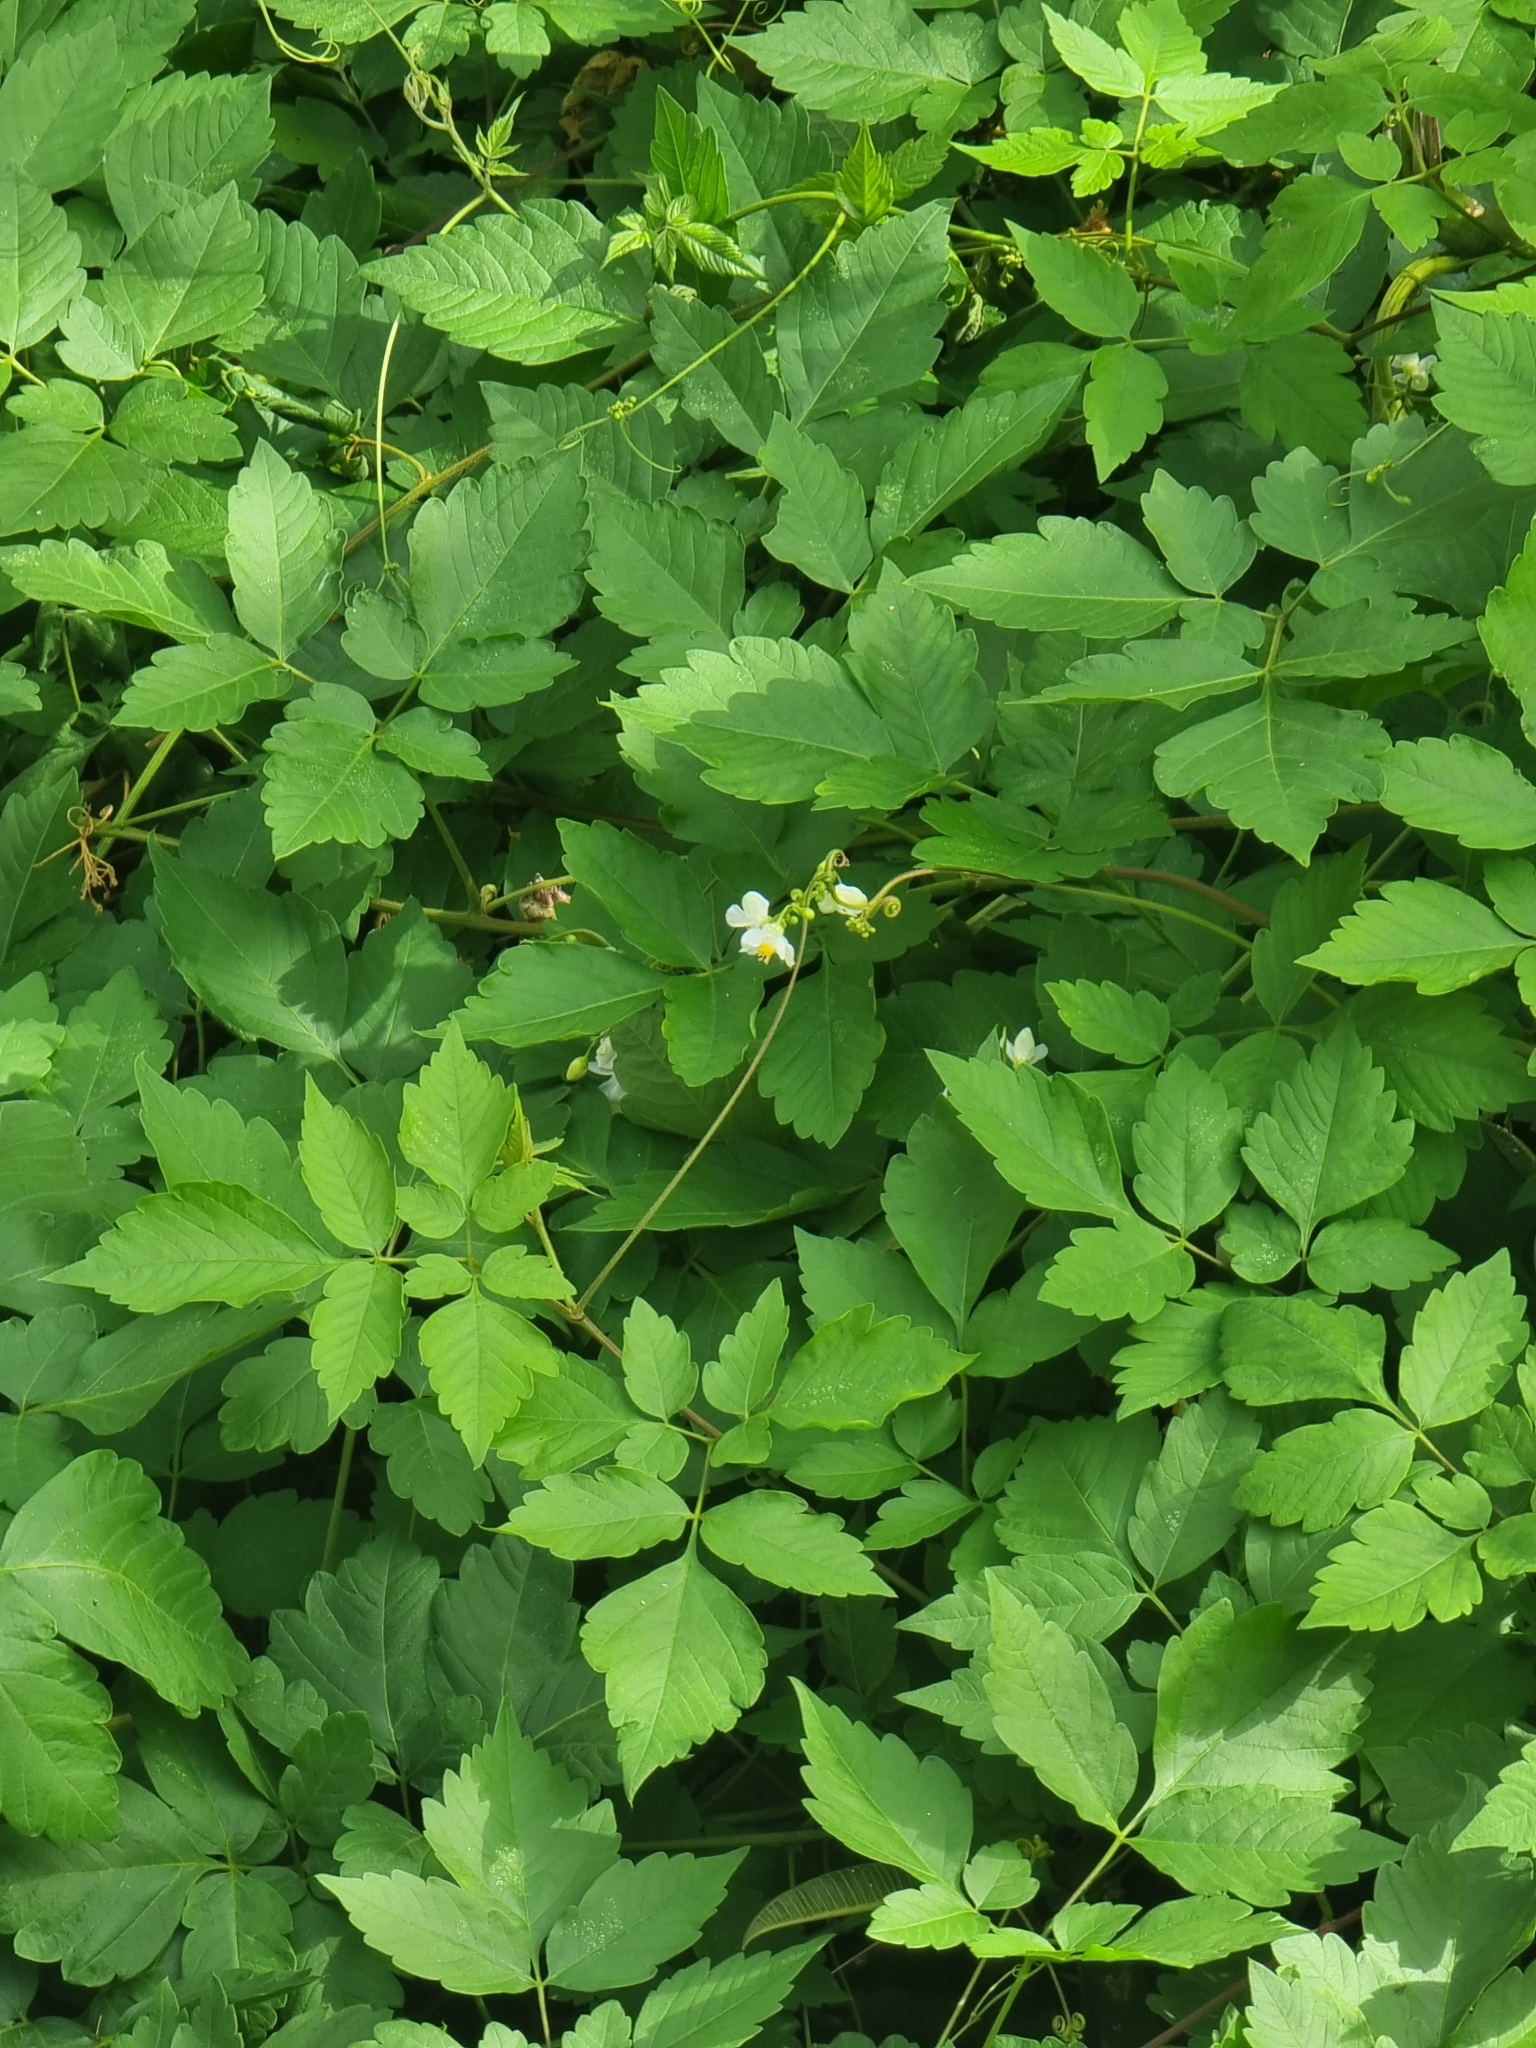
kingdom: Plantae
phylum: Tracheophyta
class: Magnoliopsida
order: Sapindales
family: Sapindaceae
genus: Cardiospermum
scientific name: Cardiospermum grandiflorum
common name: Balloon vine
